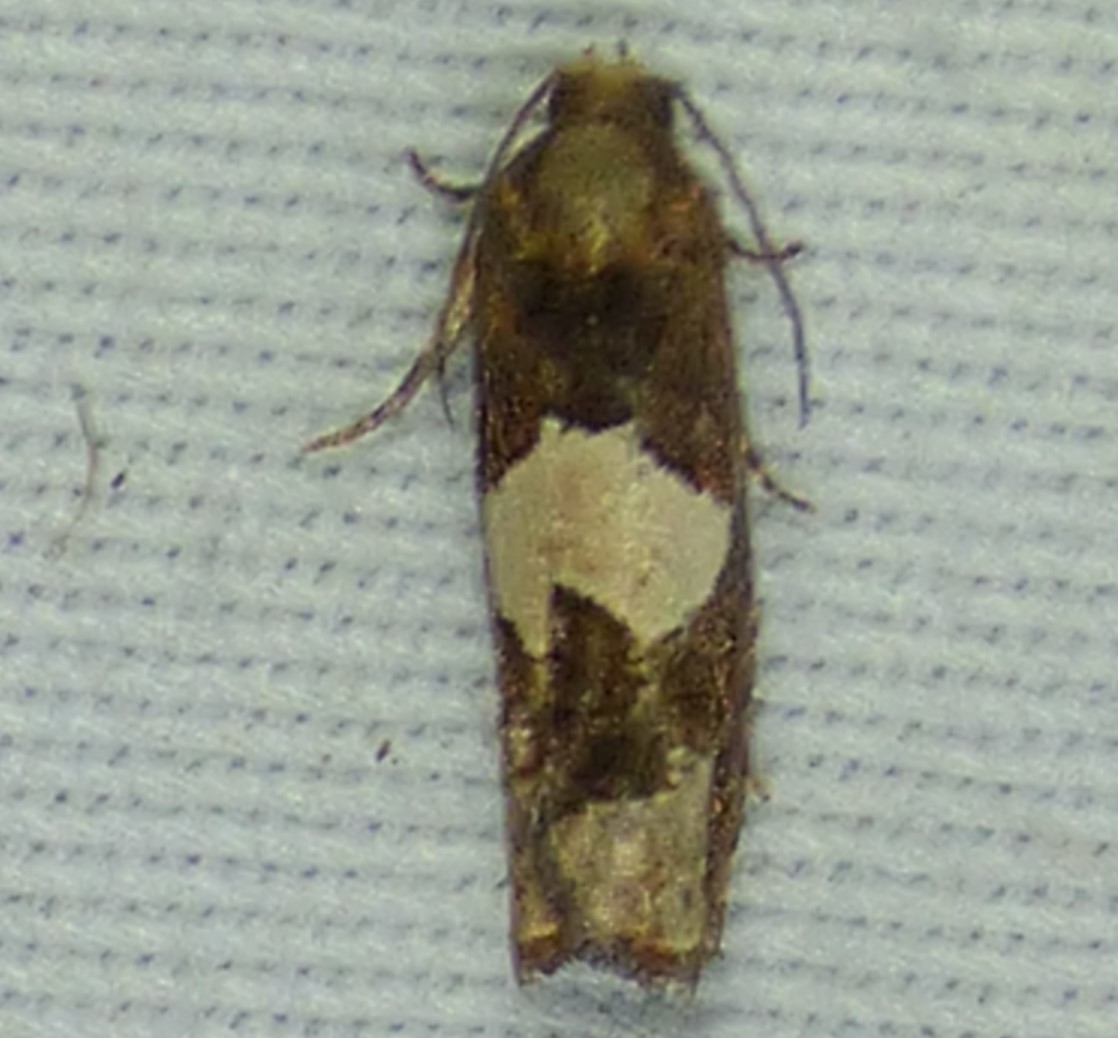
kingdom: Animalia
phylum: Arthropoda
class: Insecta
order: Lepidoptera
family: Tortricidae
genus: Epiblema
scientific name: Epiblema otiosana
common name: Bidens borer moth
